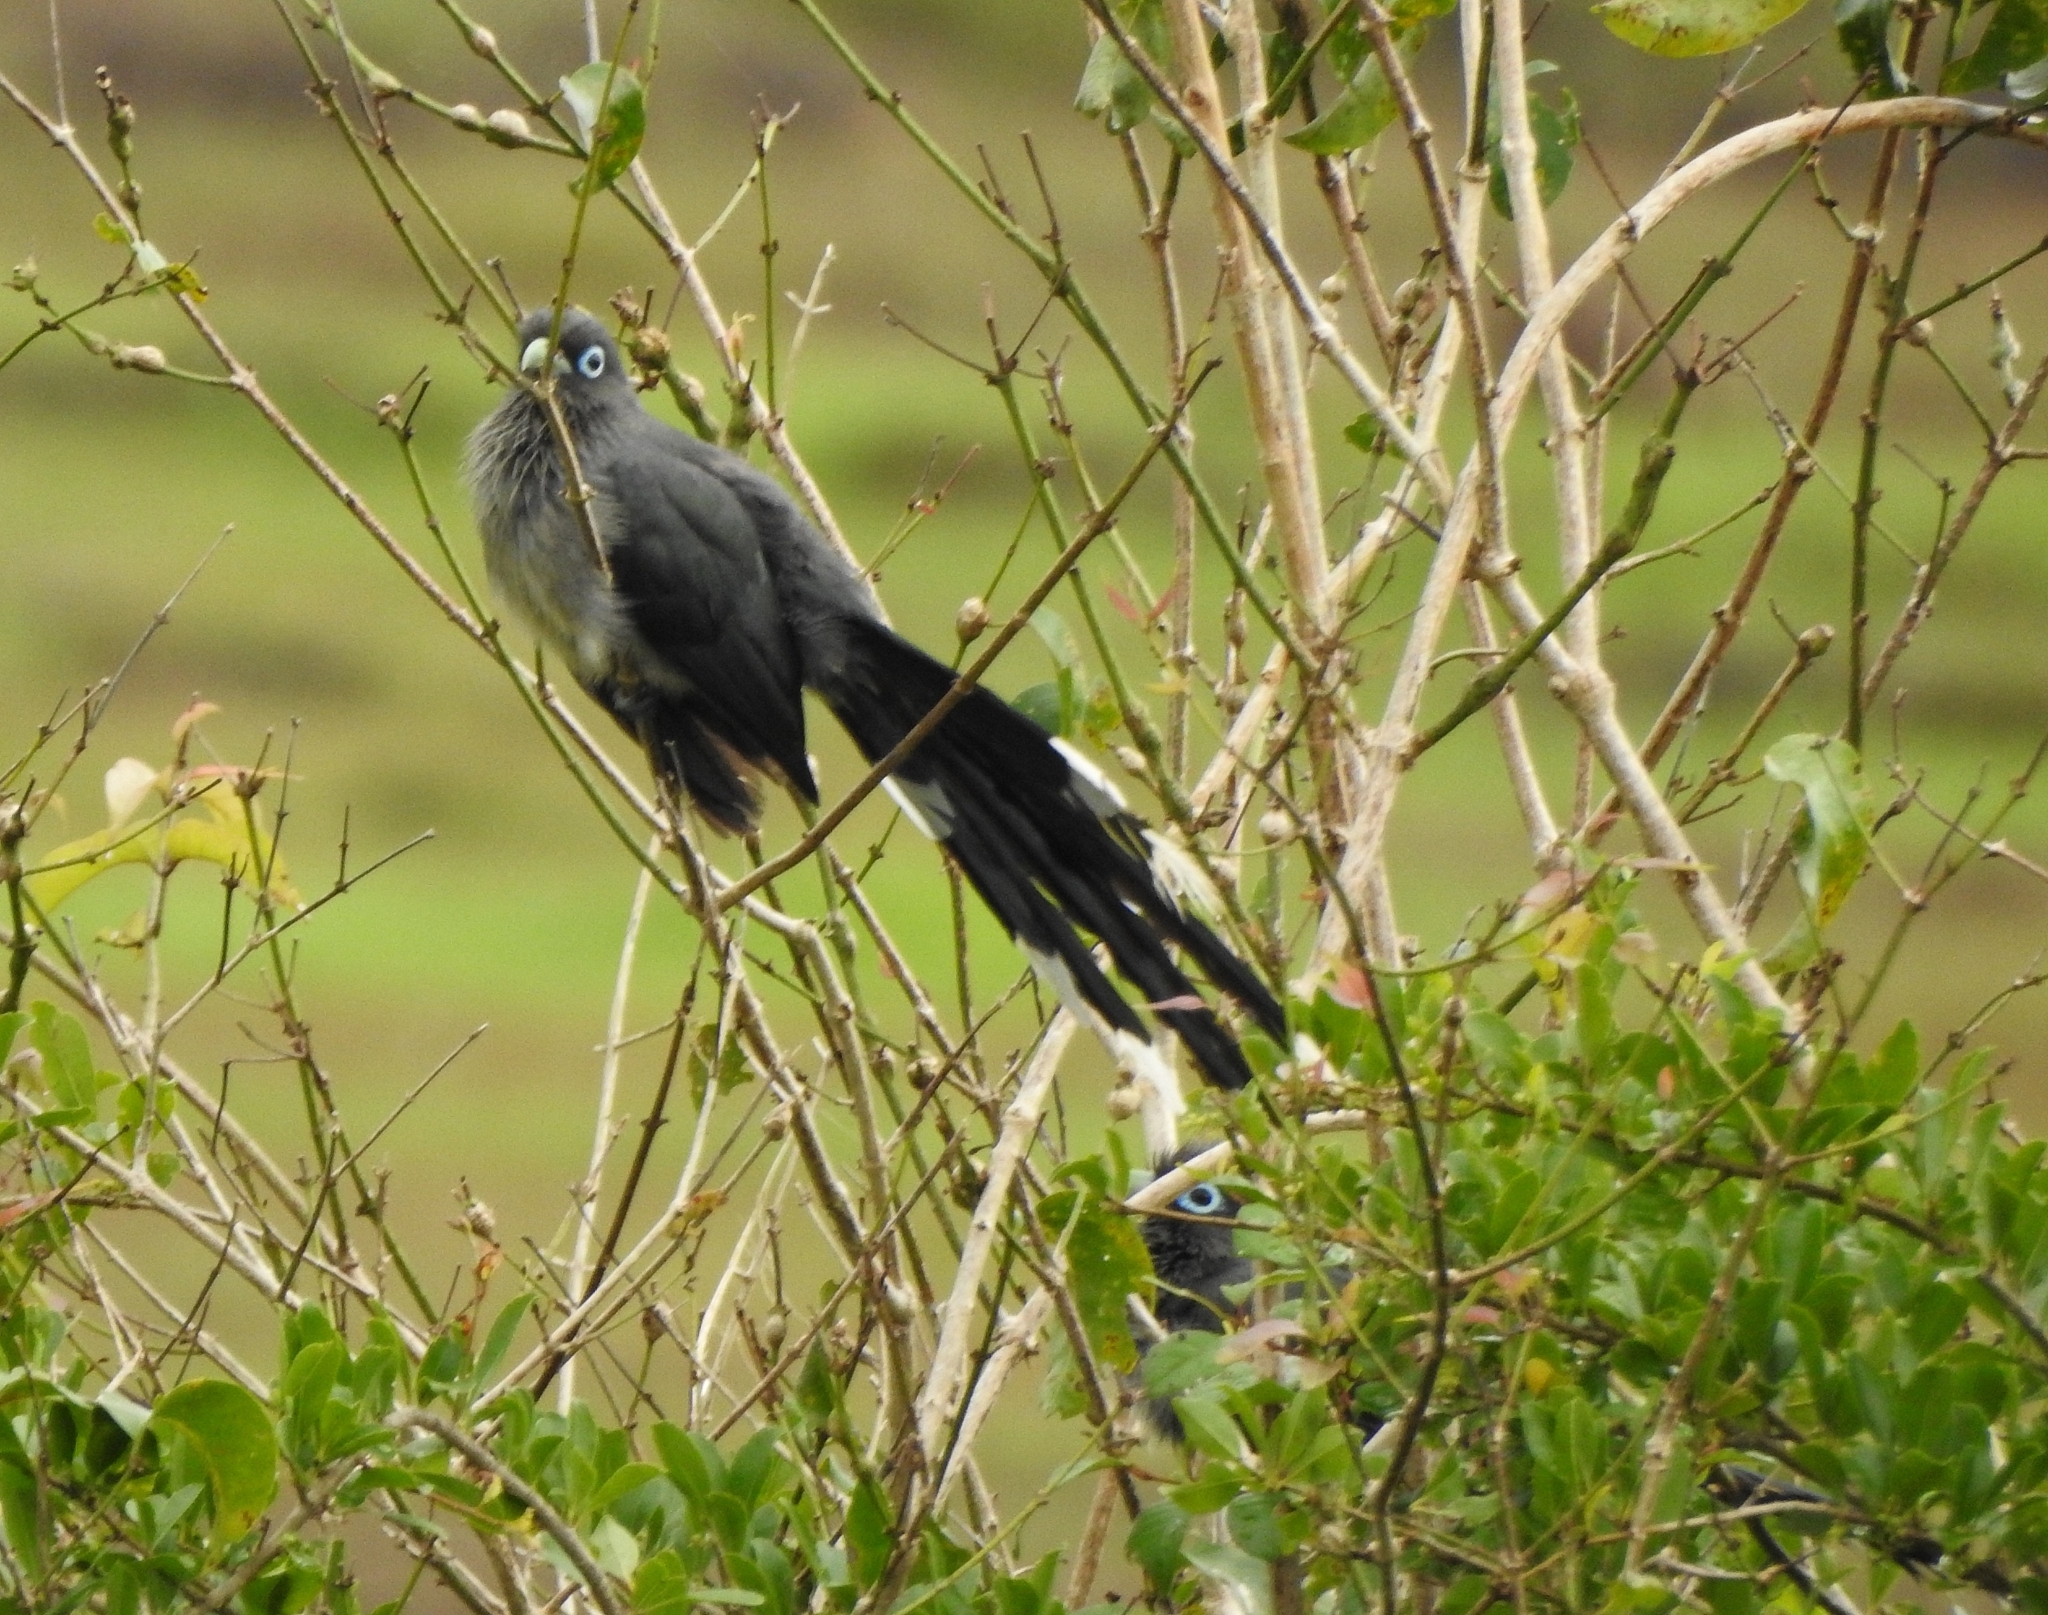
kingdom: Animalia
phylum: Chordata
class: Aves
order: Cuculiformes
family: Cuculidae
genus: Rhopodytes
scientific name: Rhopodytes viridirostris
